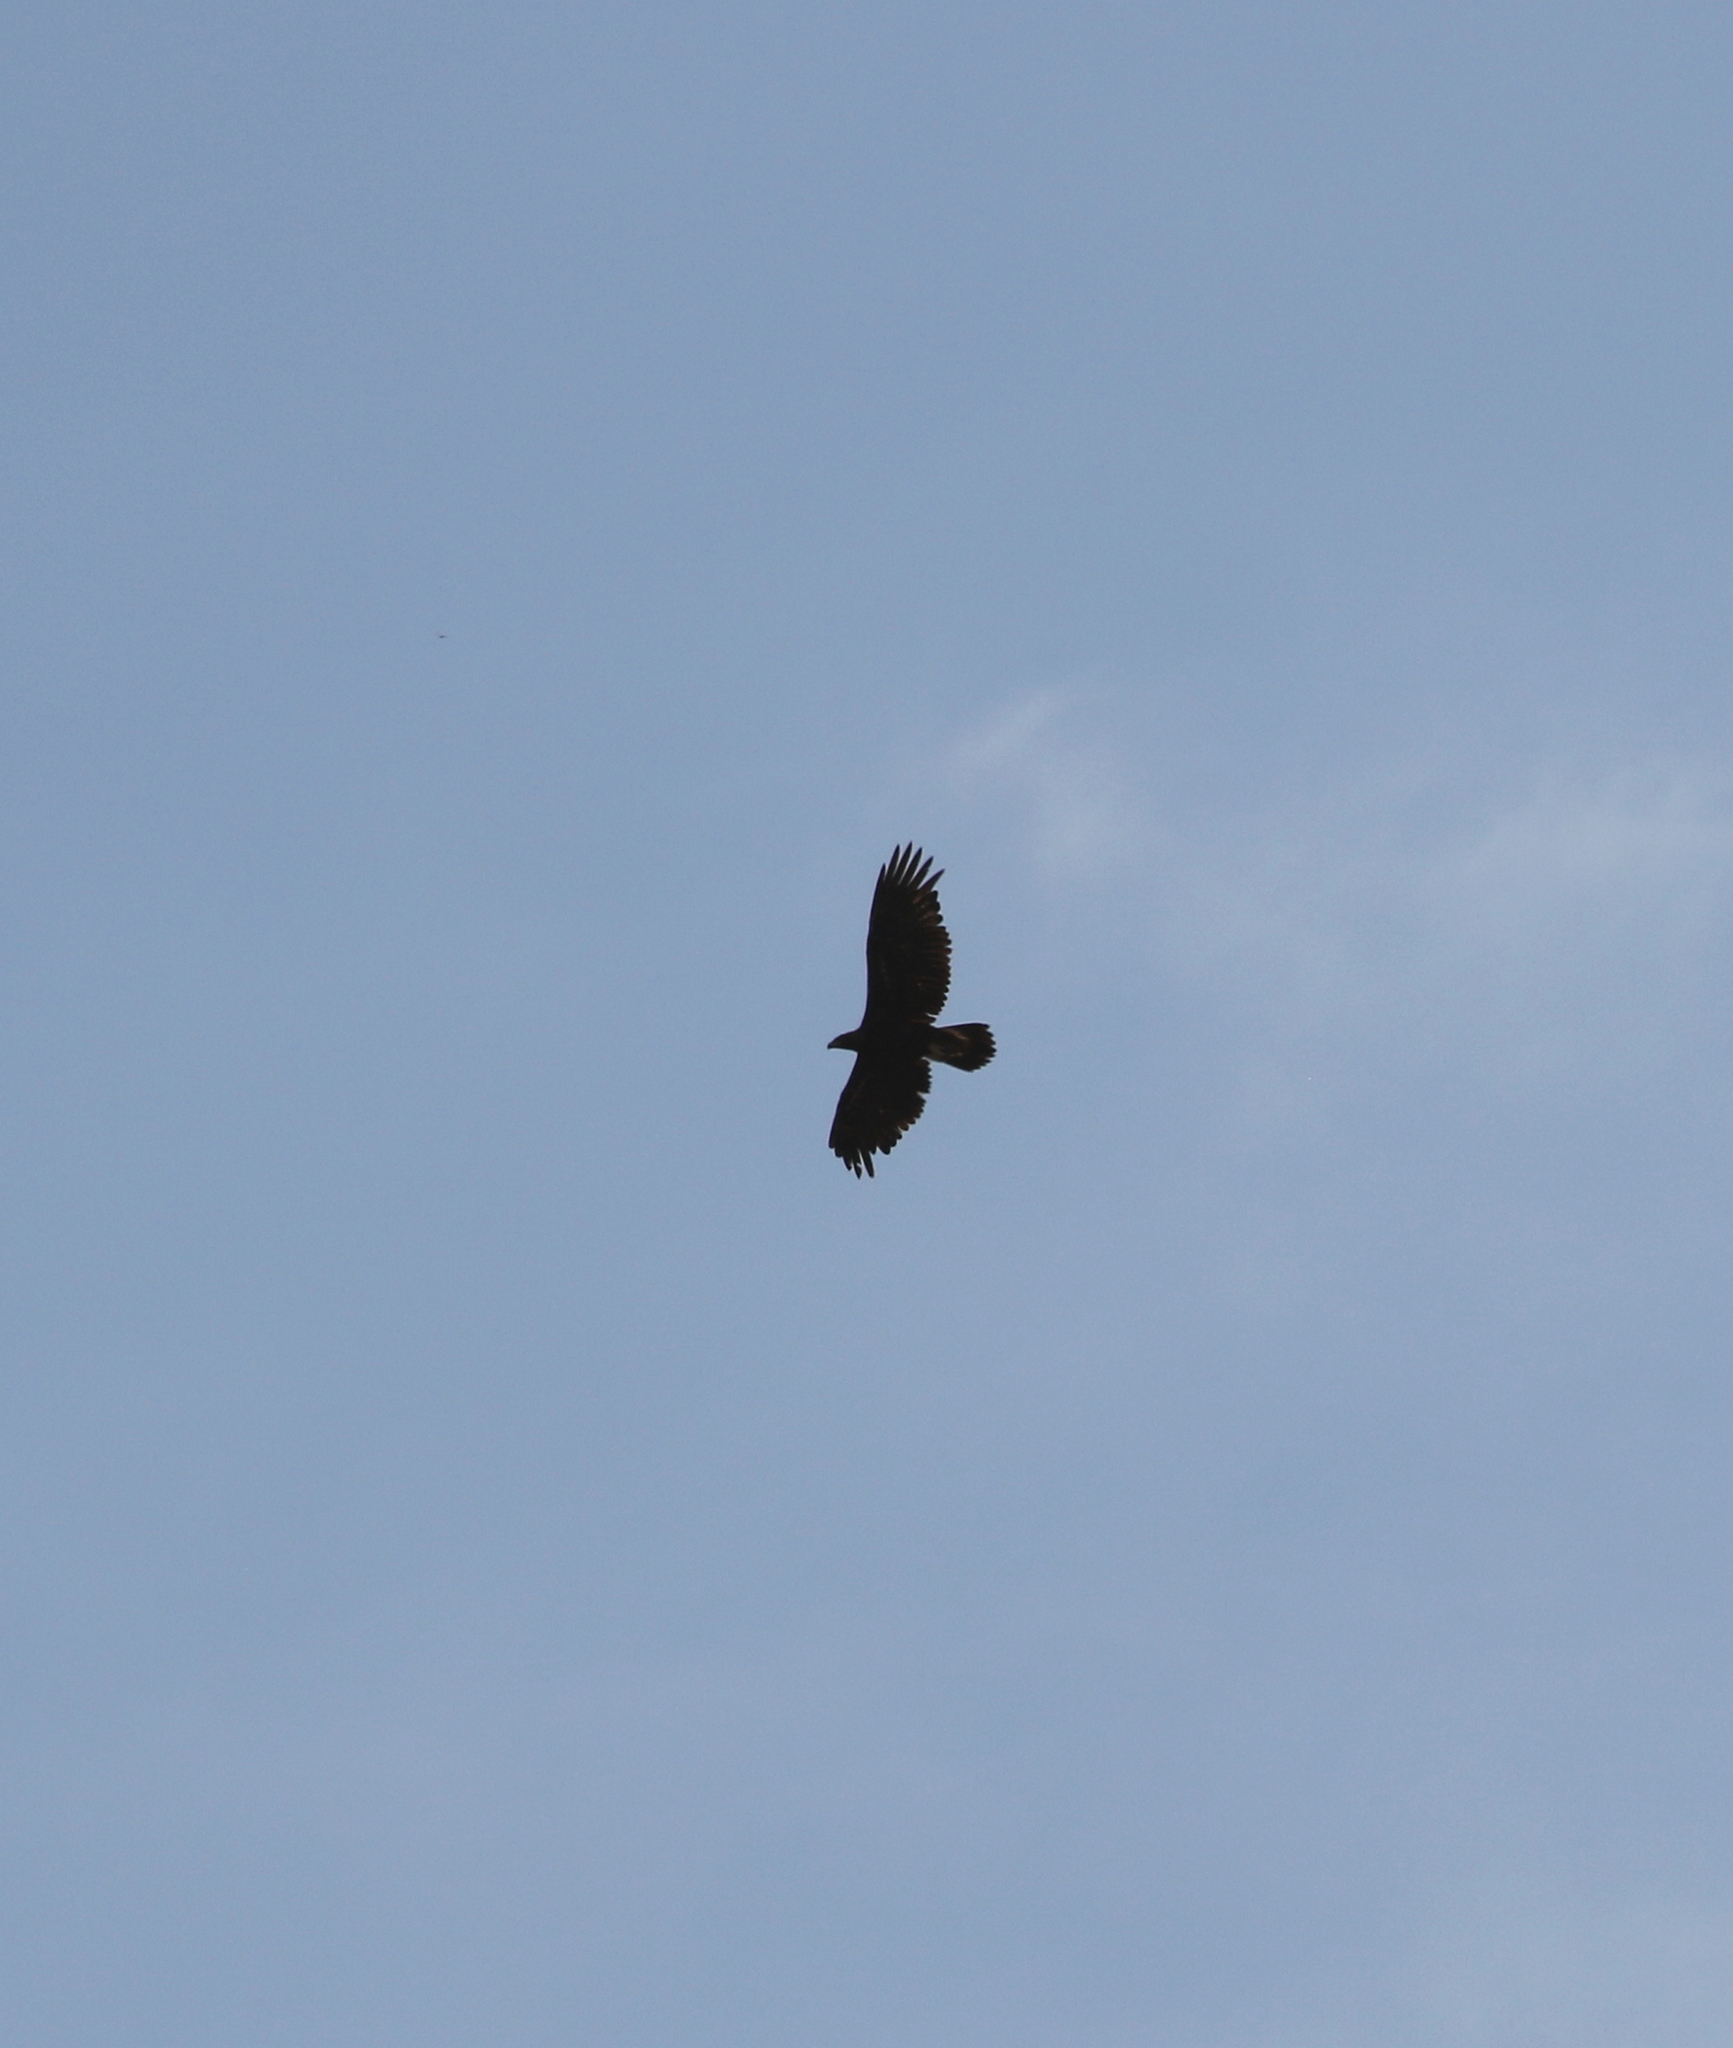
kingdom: Animalia
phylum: Chordata
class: Aves
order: Accipitriformes
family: Accipitridae
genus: Aquila
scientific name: Aquila chrysaetos
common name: Golden eagle
